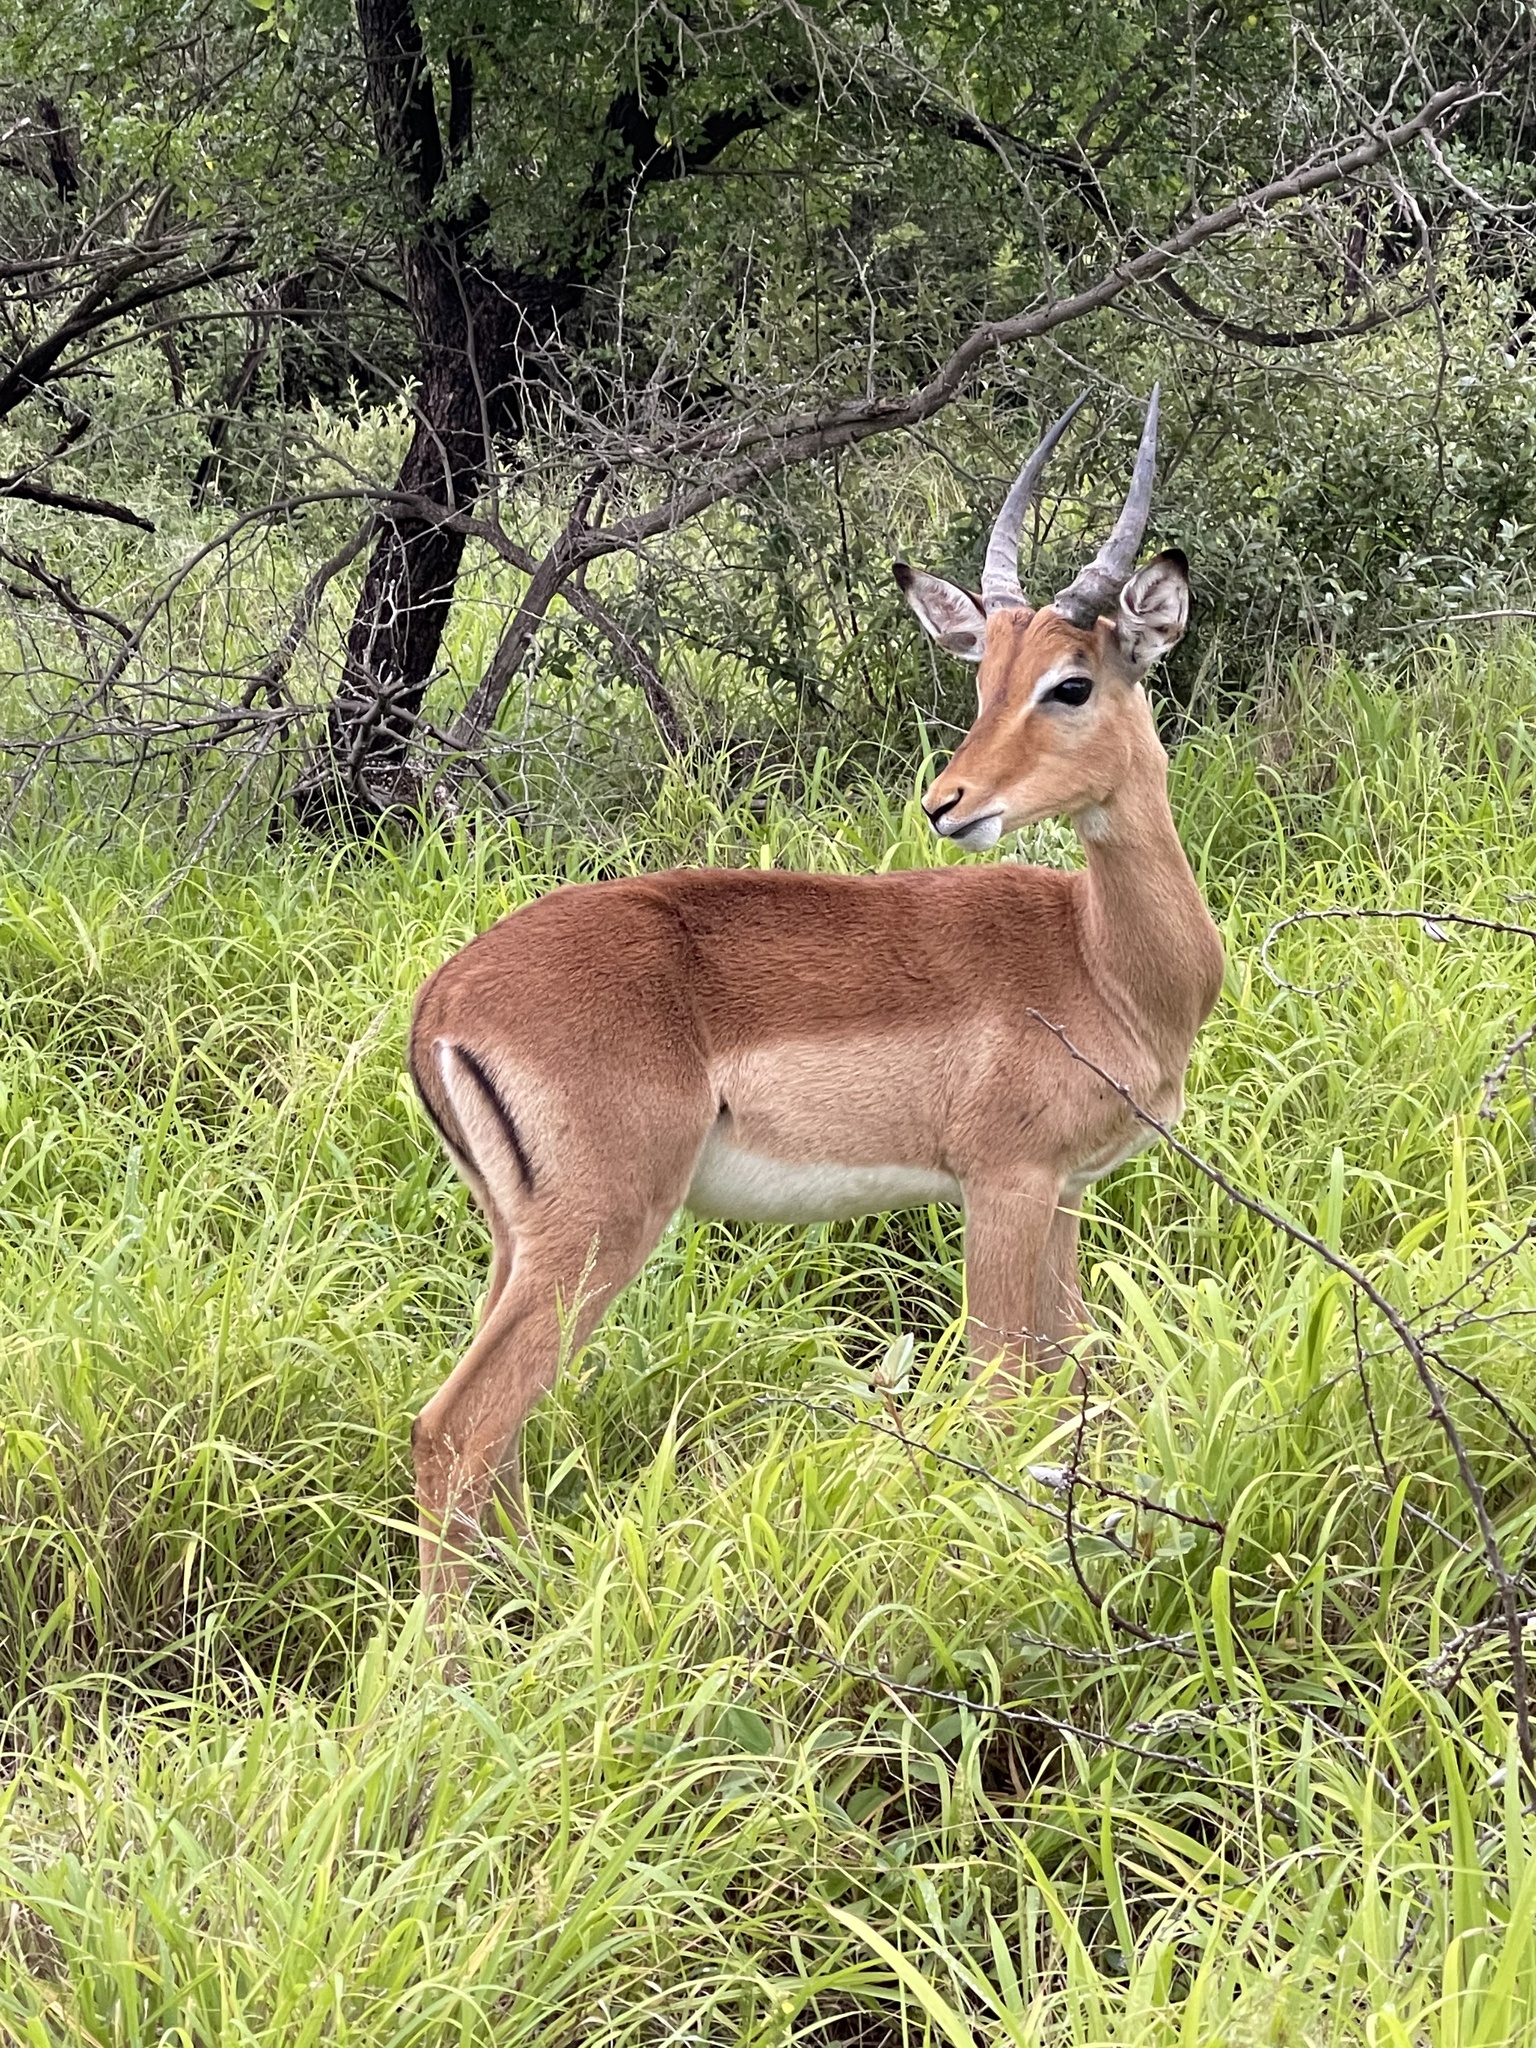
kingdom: Animalia
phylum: Chordata
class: Mammalia
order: Artiodactyla
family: Bovidae
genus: Aepyceros
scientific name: Aepyceros melampus
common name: Impala
